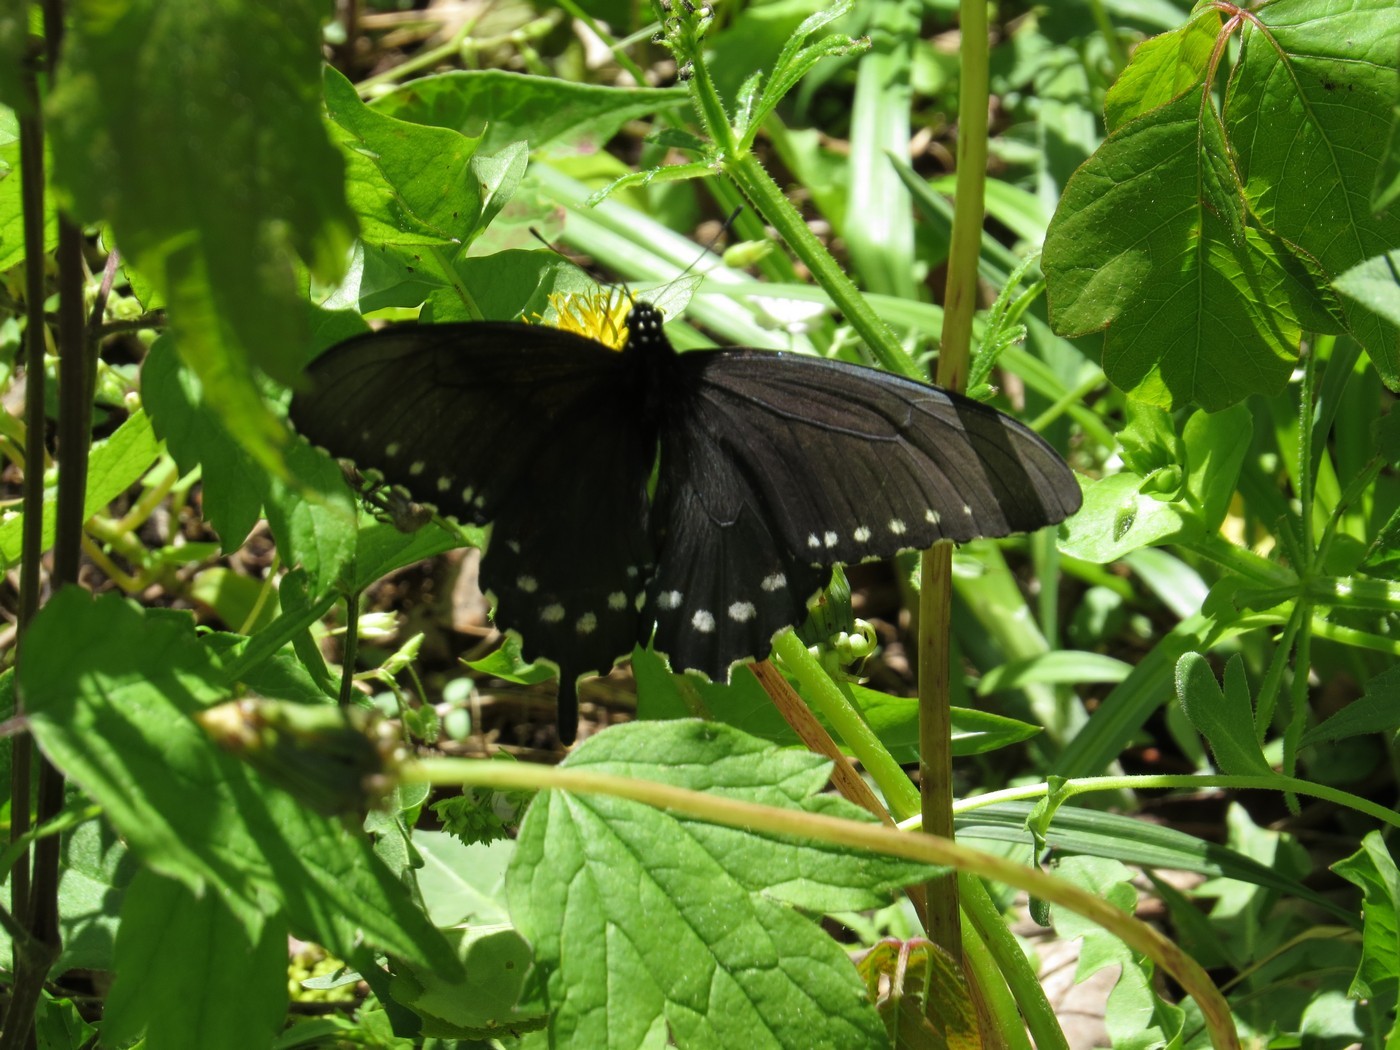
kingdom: Animalia
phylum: Arthropoda
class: Insecta
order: Lepidoptera
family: Papilionidae
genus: Battus
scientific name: Battus philenor
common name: Pipevine swallowtail
